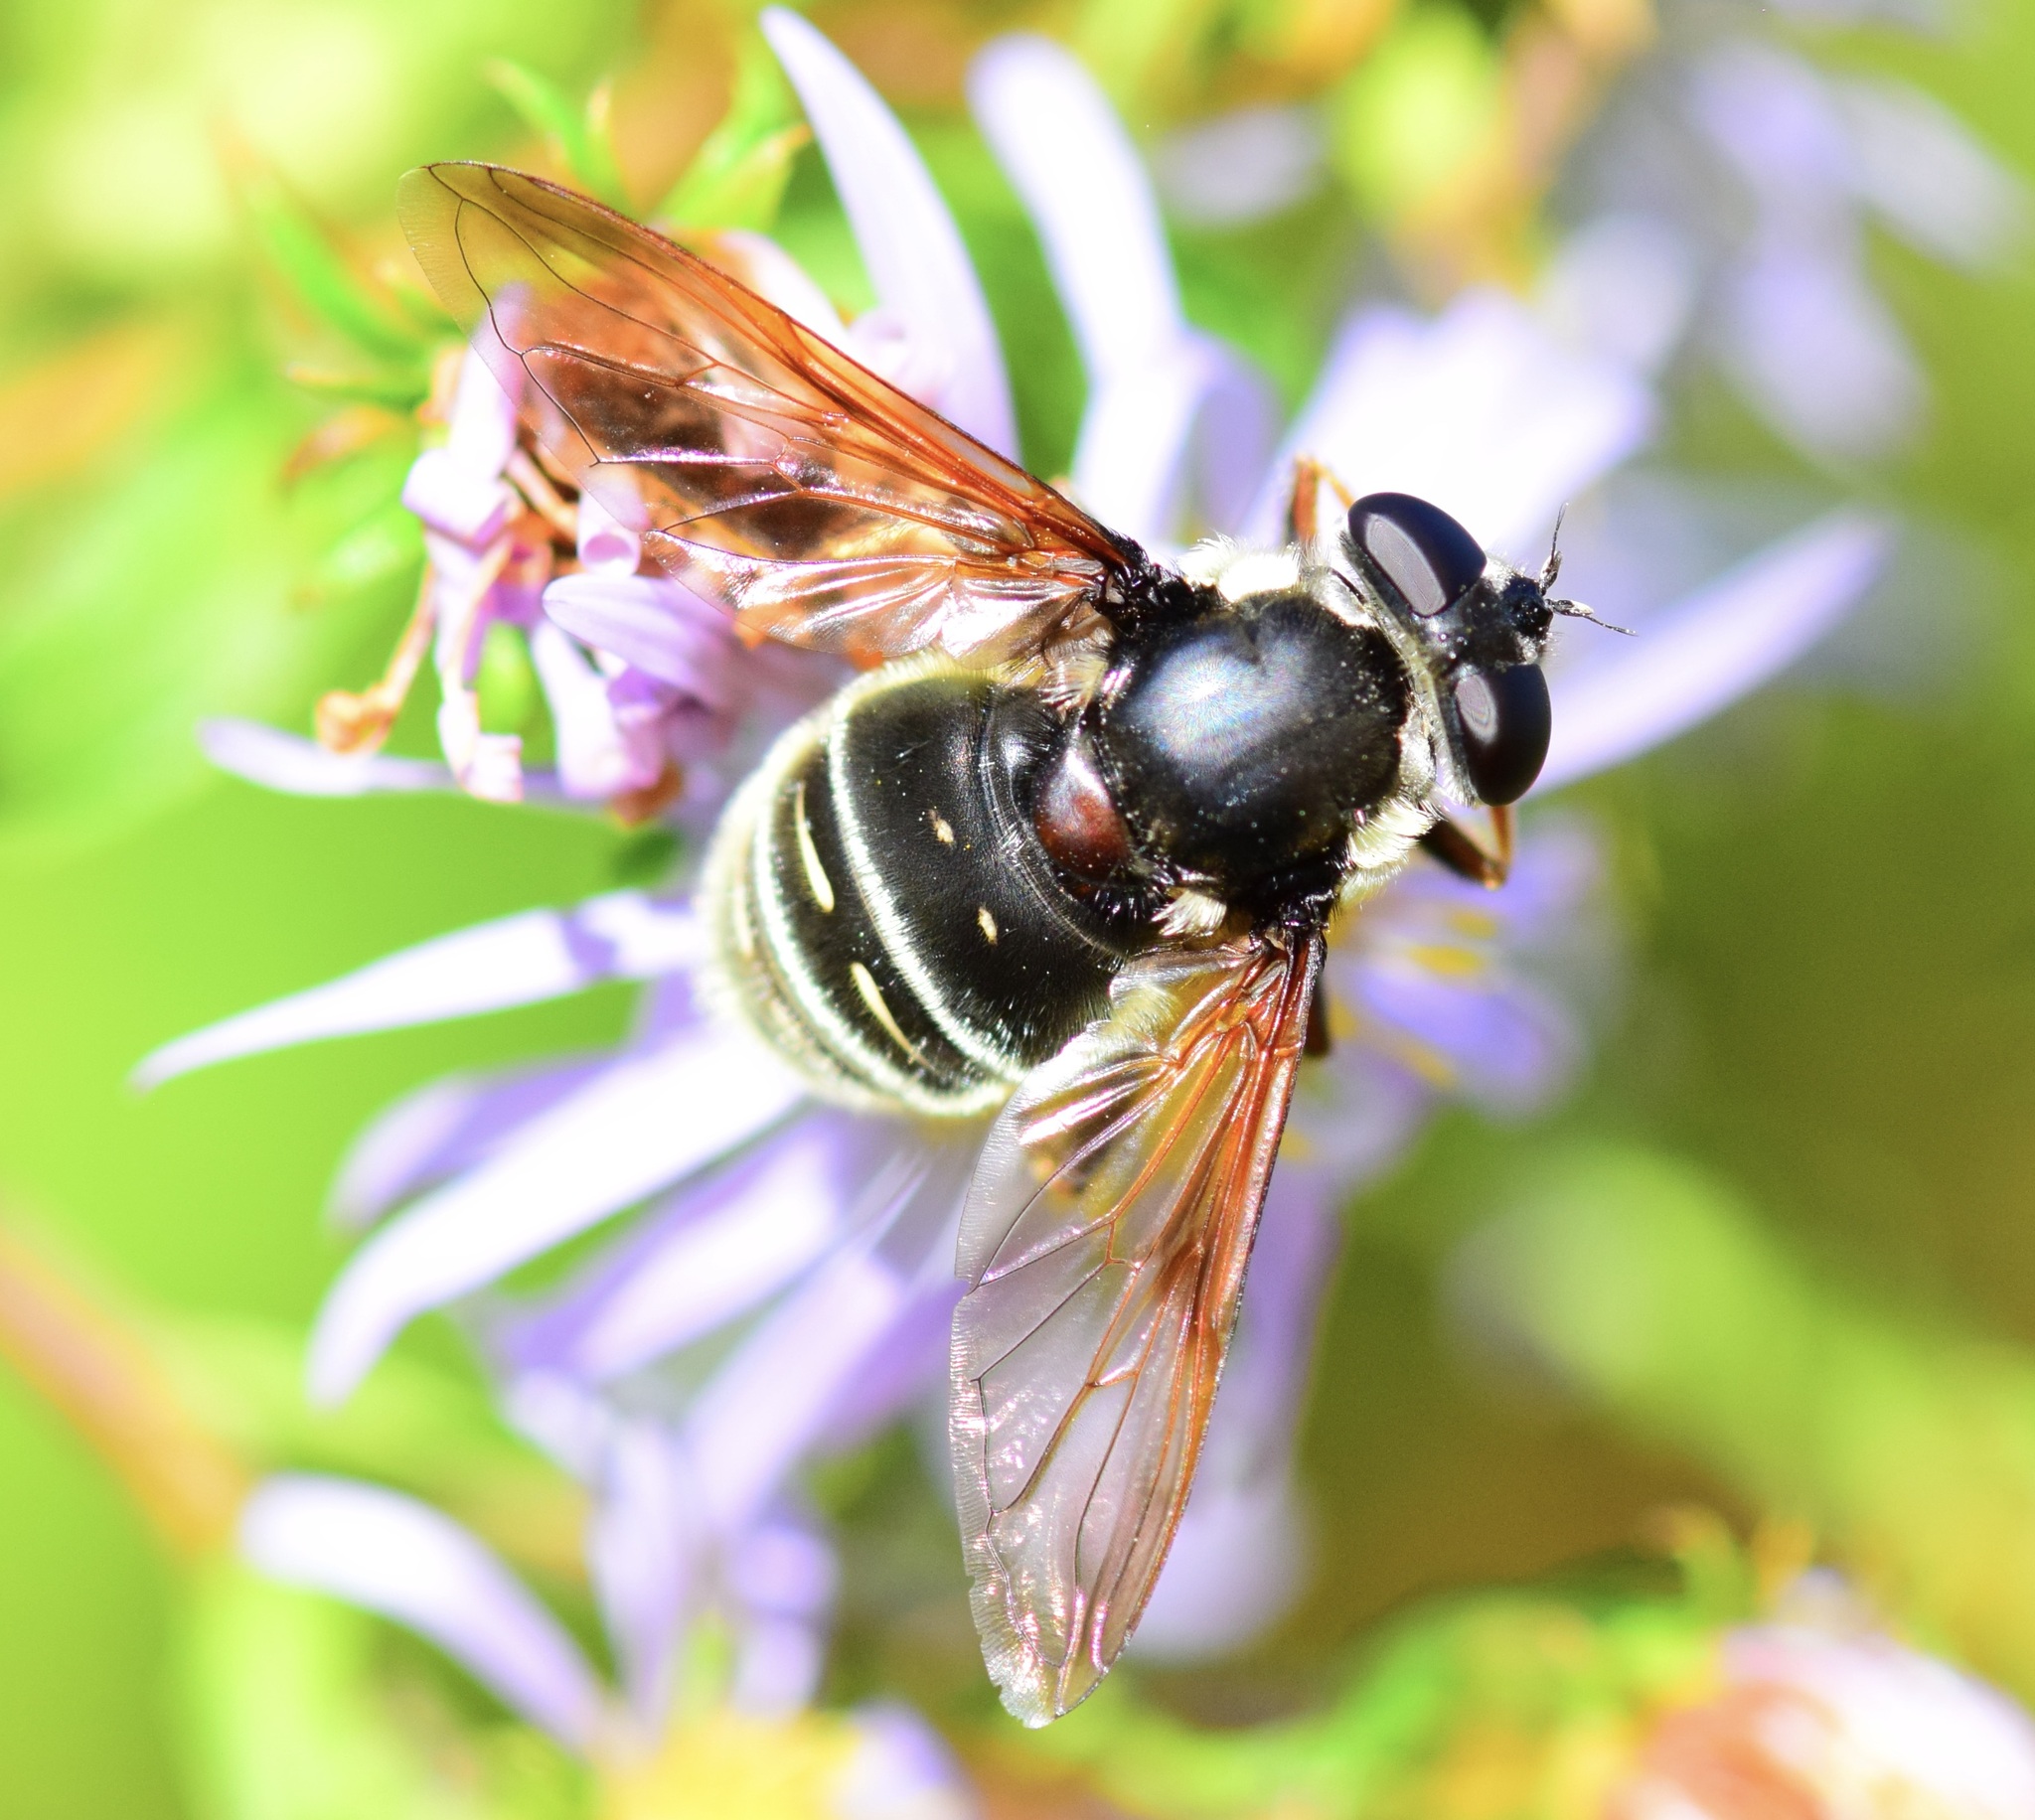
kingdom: Animalia
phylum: Arthropoda
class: Insecta
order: Diptera
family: Syrphidae
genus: Sericomyia
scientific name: Sericomyia militaris
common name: Narrow-banded pond fly
